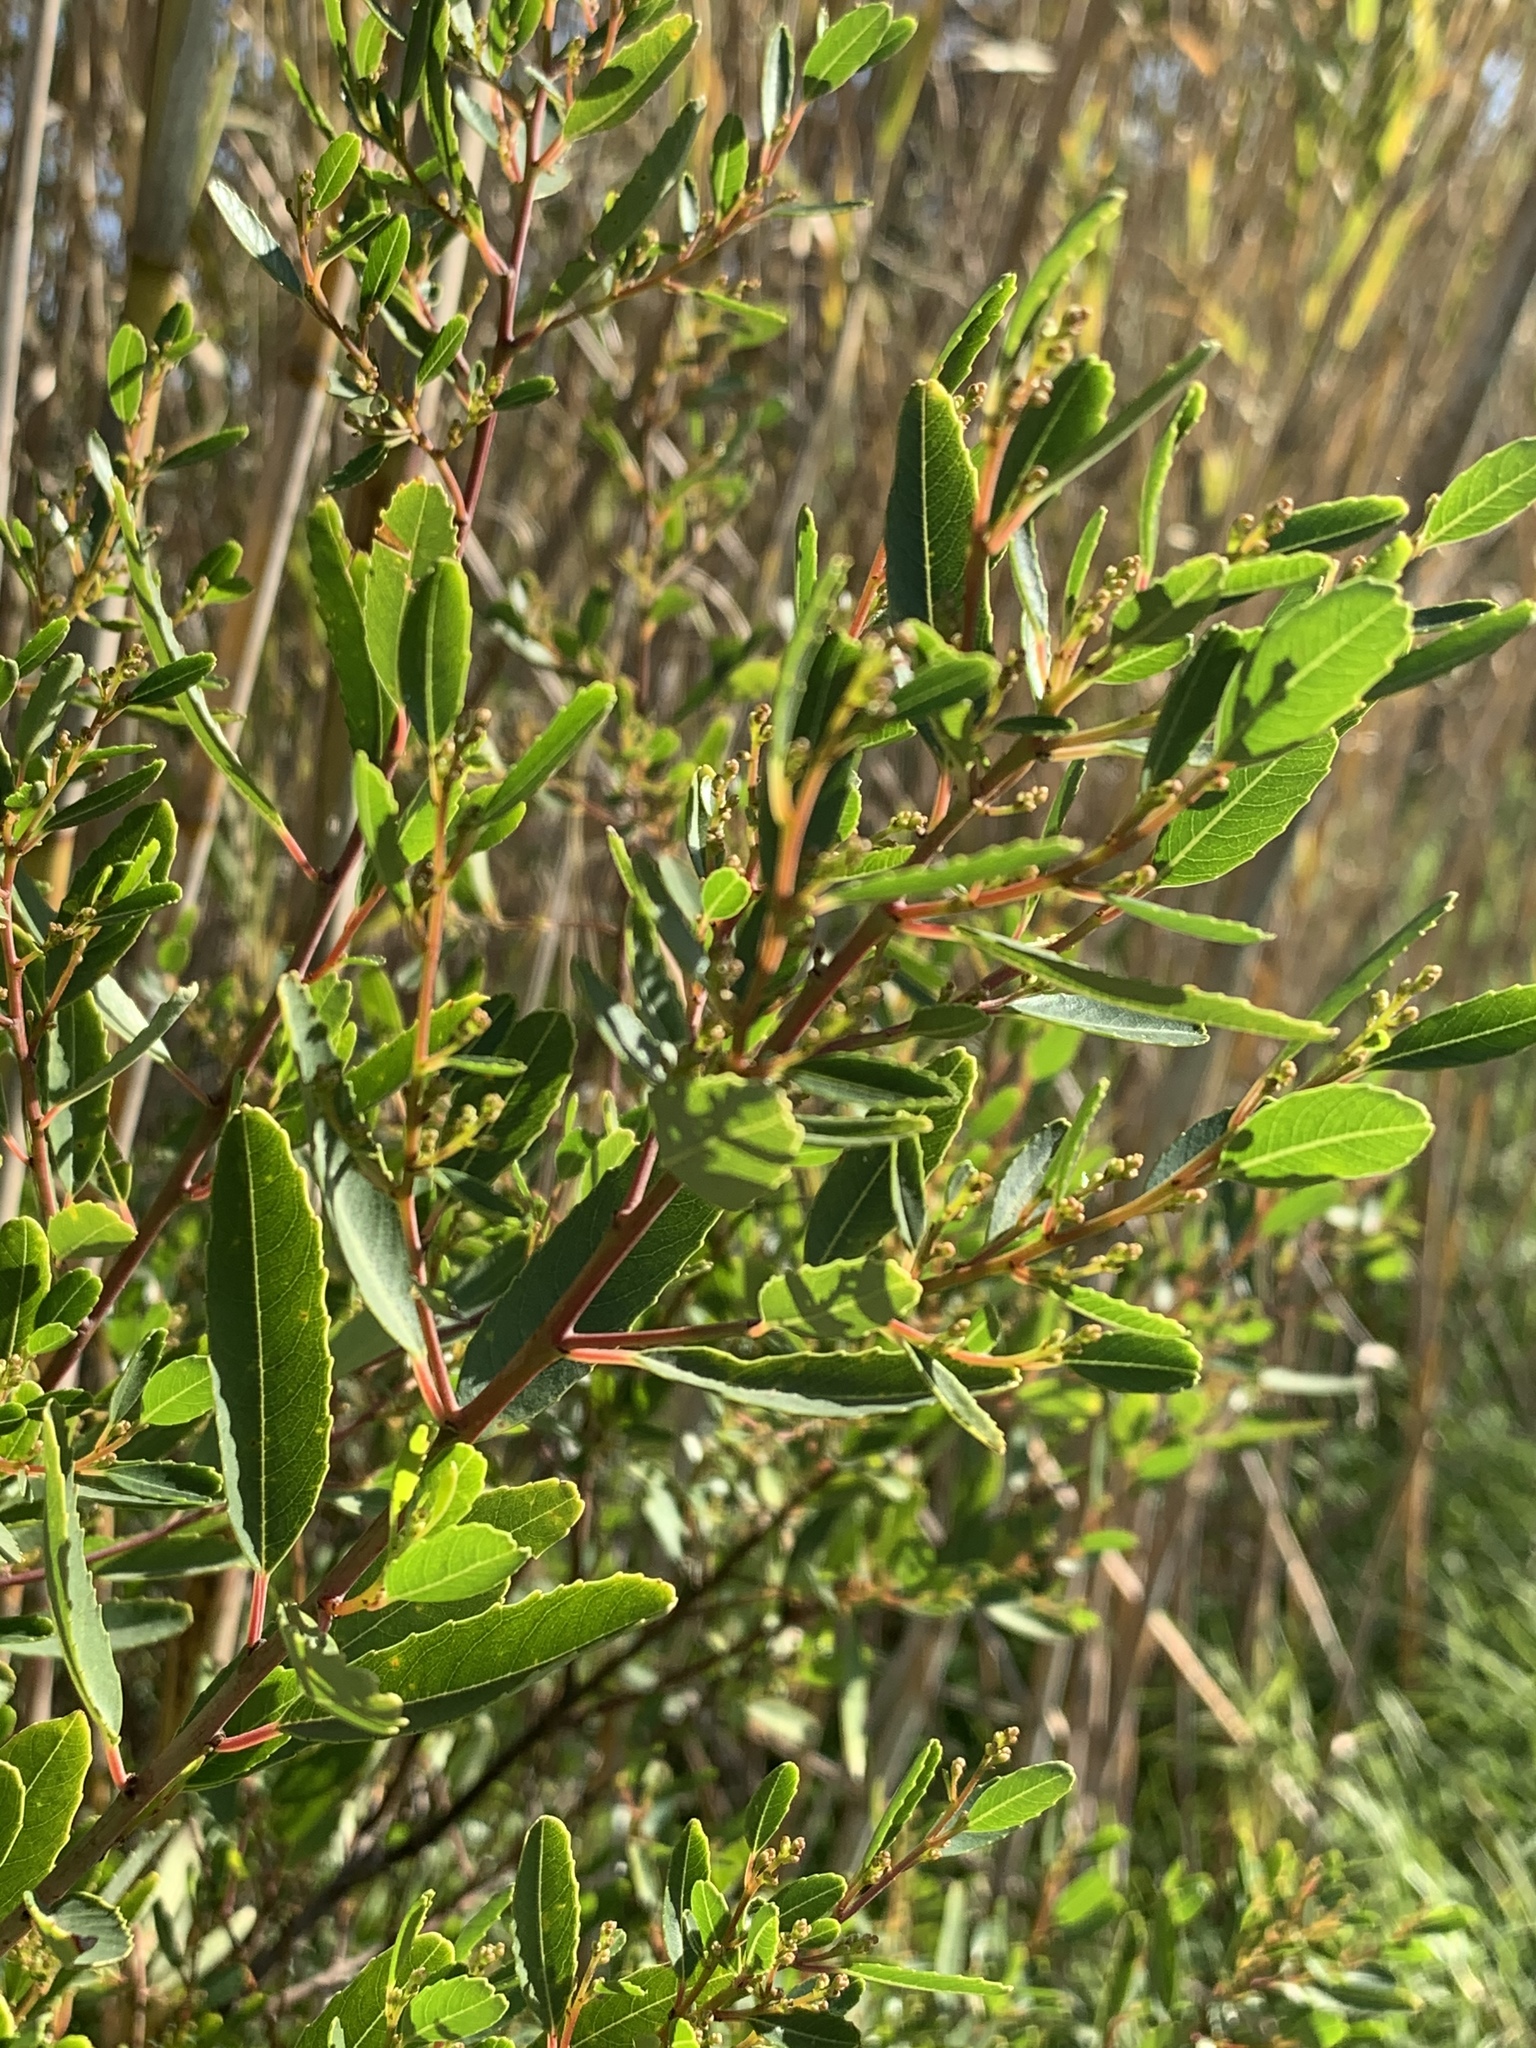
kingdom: Plantae
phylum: Tracheophyta
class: Magnoliopsida
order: Rosales
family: Rhamnaceae
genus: Noltea
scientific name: Noltea africana
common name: Soapbush
